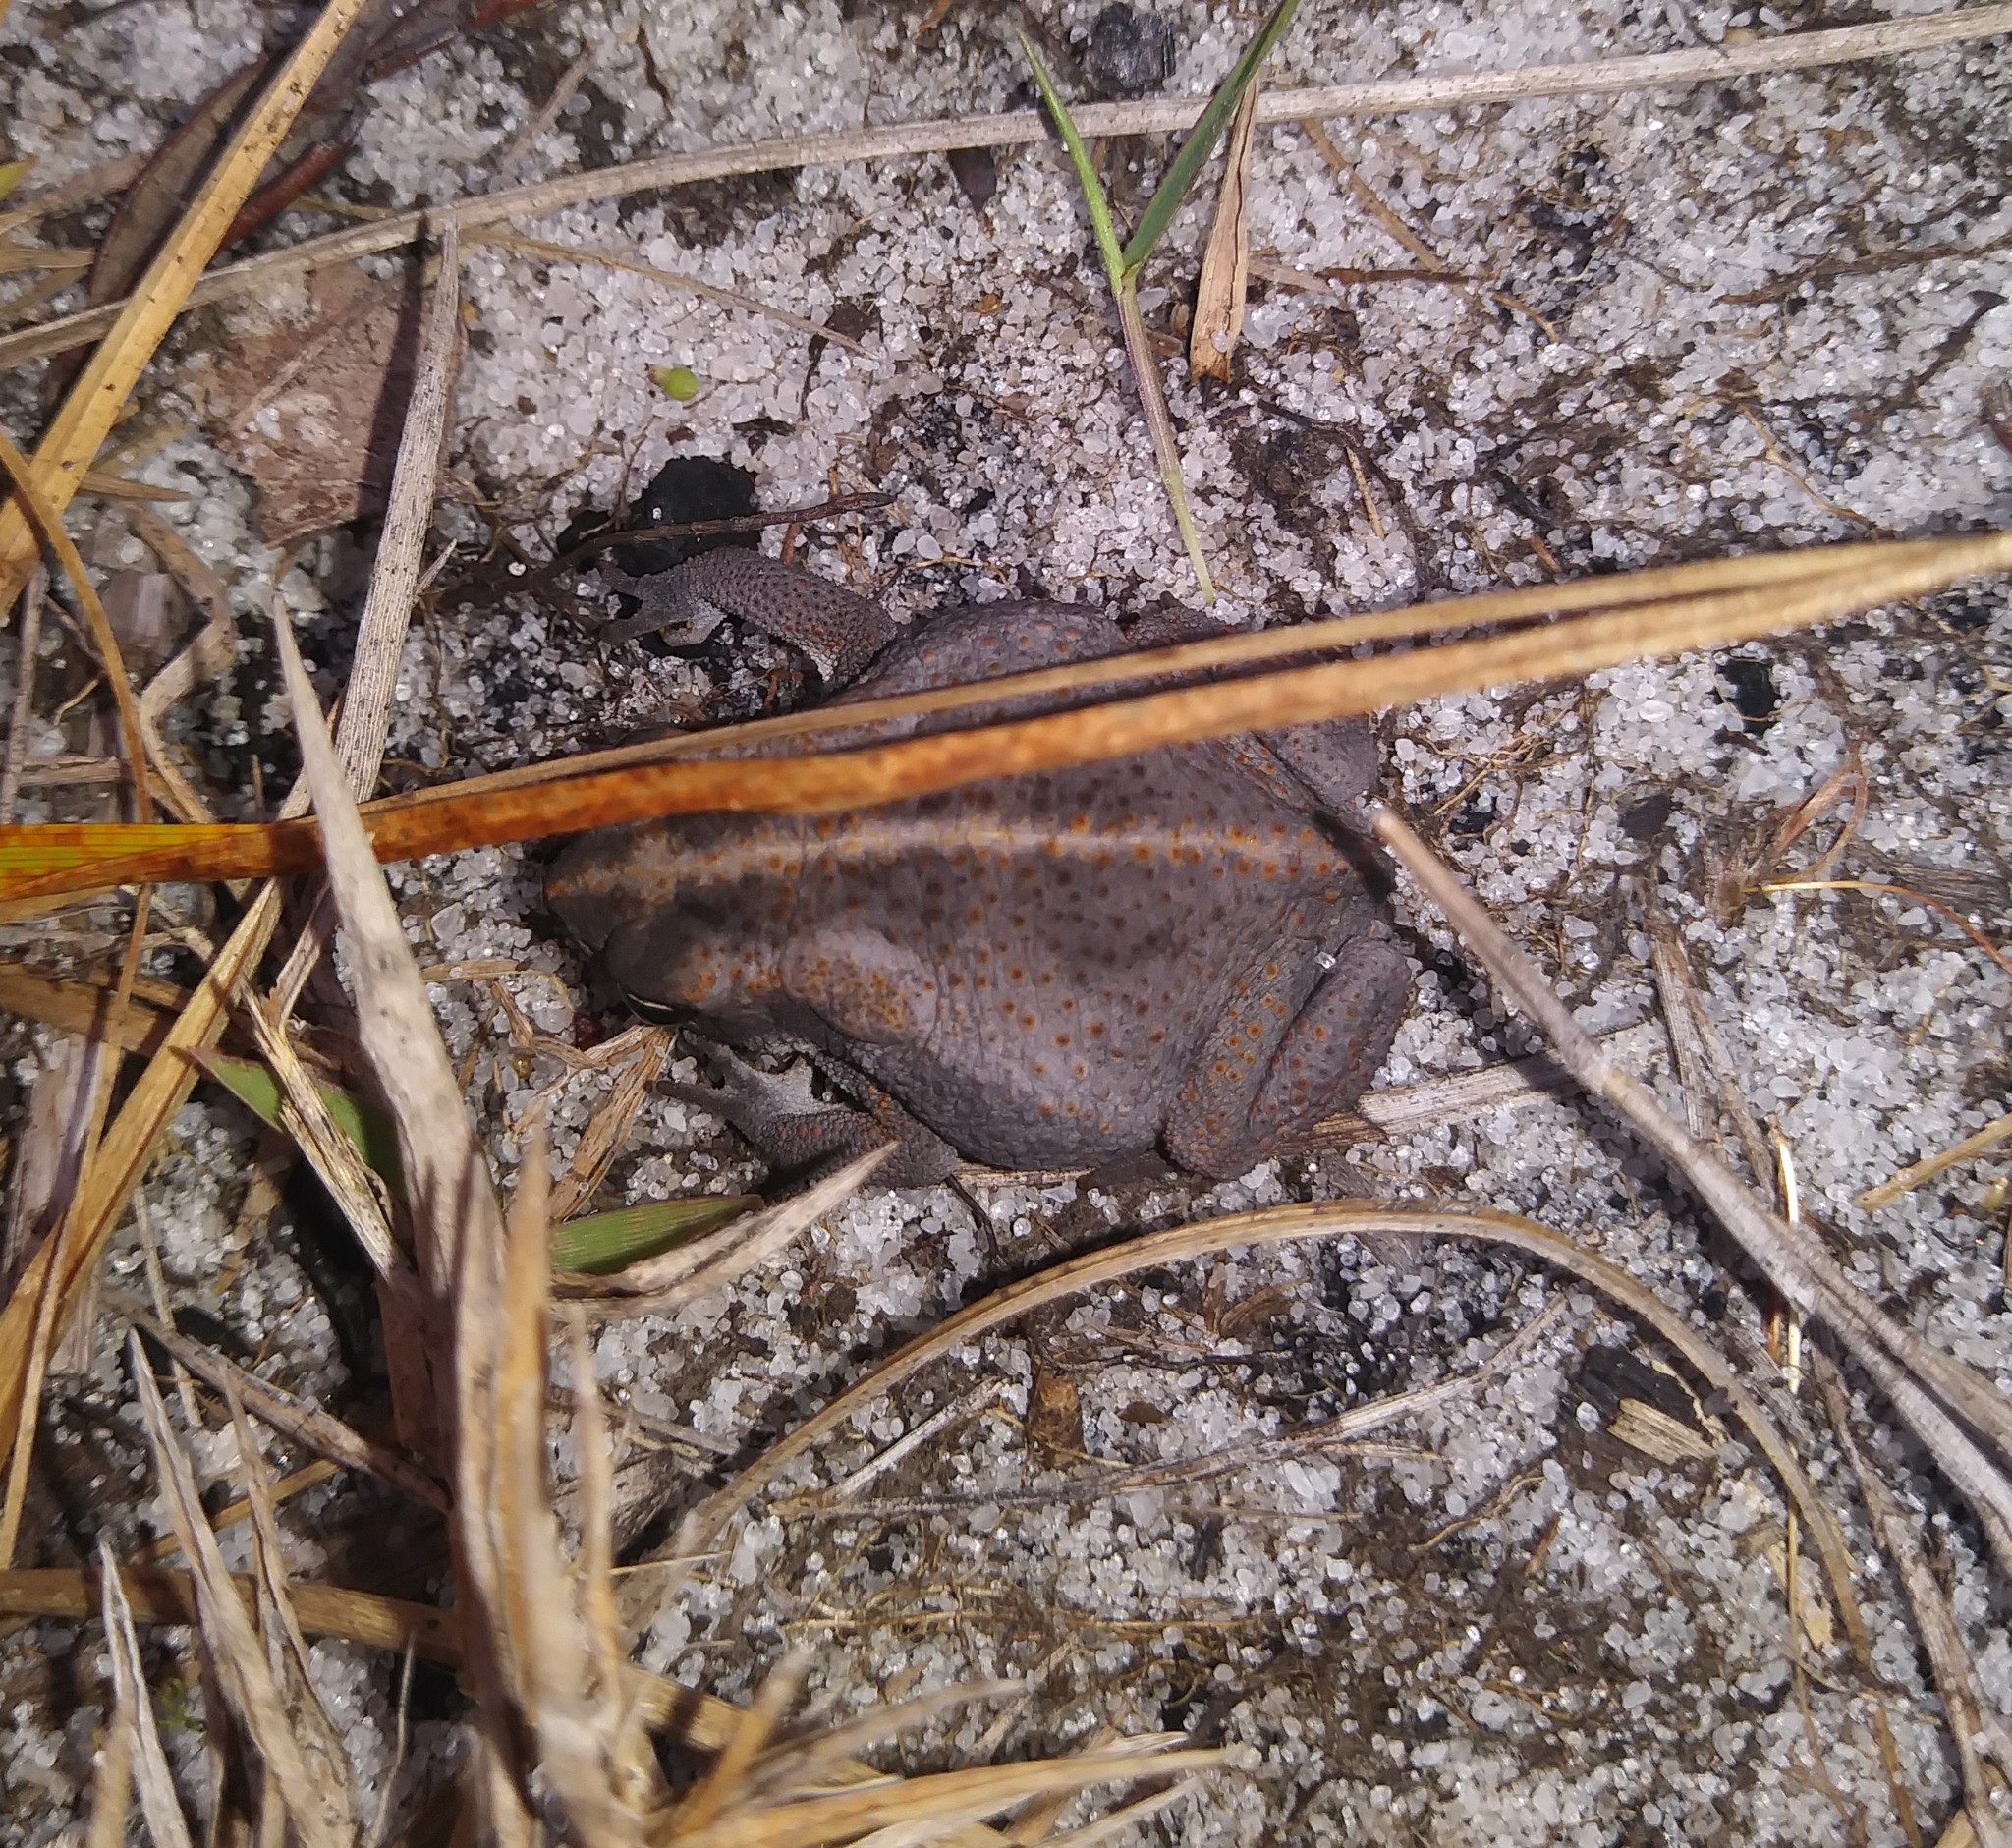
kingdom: Animalia
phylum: Chordata
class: Amphibia
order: Anura
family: Bufonidae
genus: Anaxyrus
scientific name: Anaxyrus quercicus
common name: Oak toad
